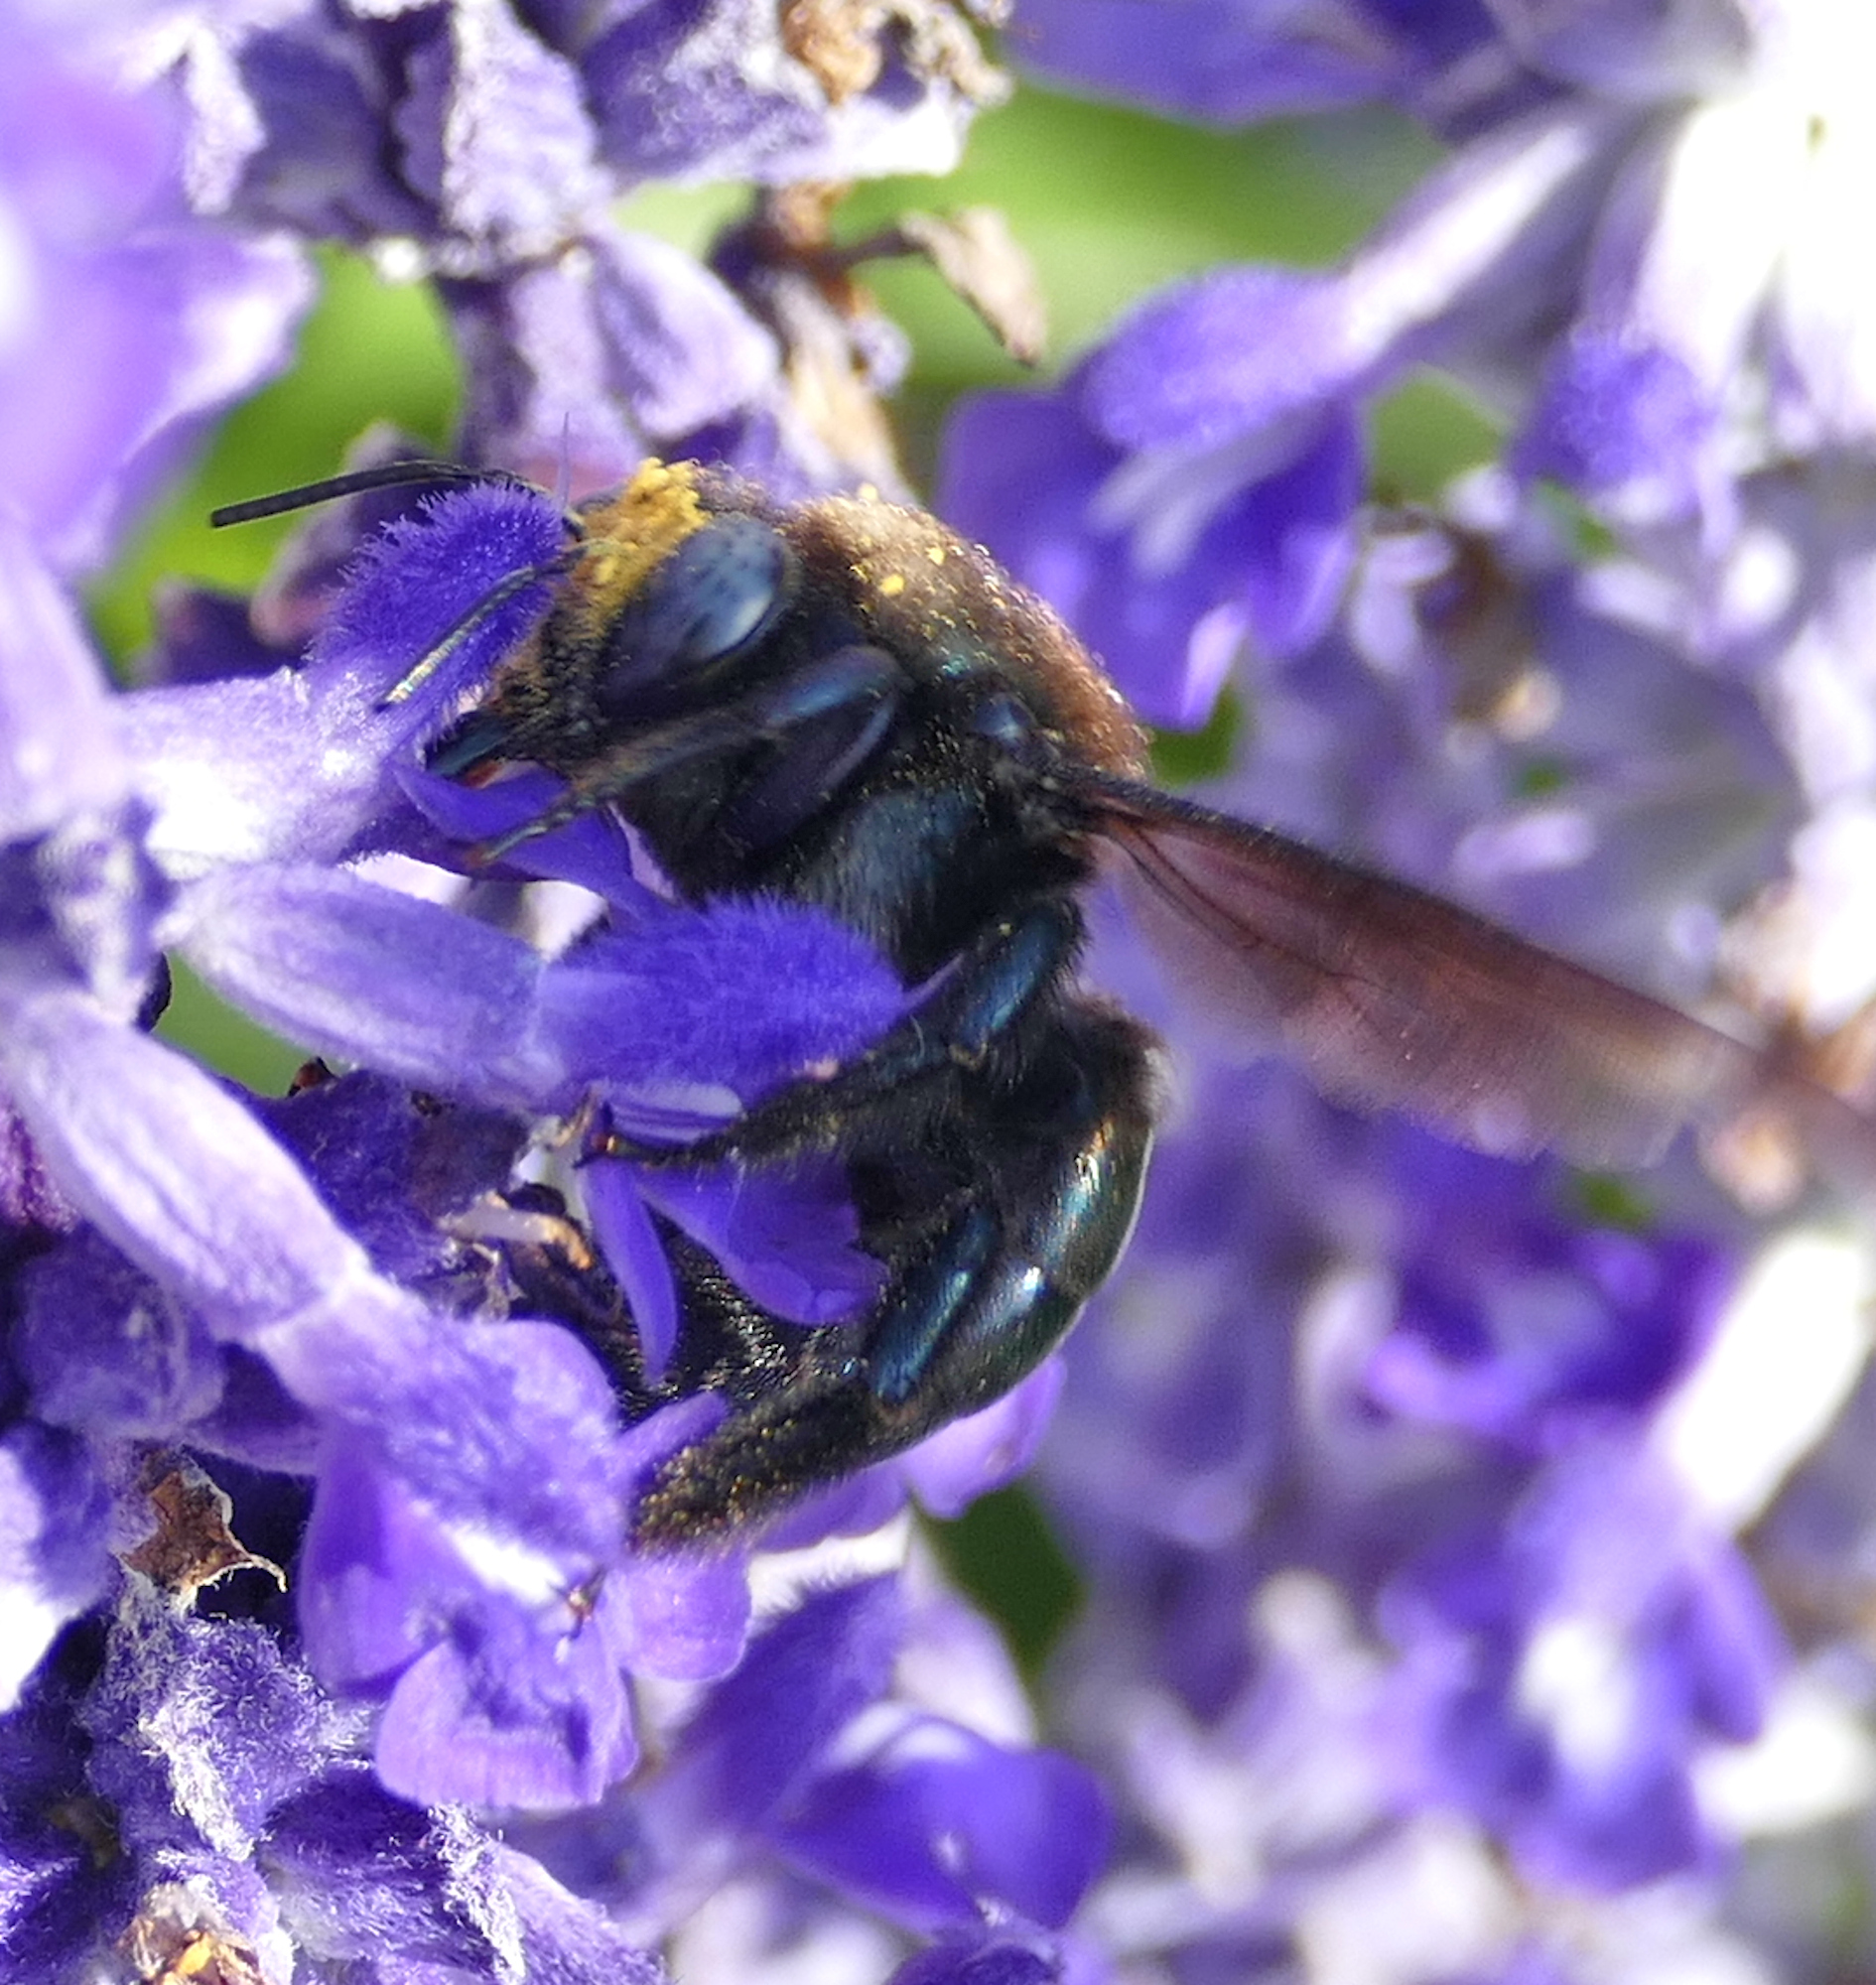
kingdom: Animalia
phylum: Arthropoda
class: Insecta
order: Hymenoptera
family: Apidae
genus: Xylocopa
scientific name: Xylocopa californica
